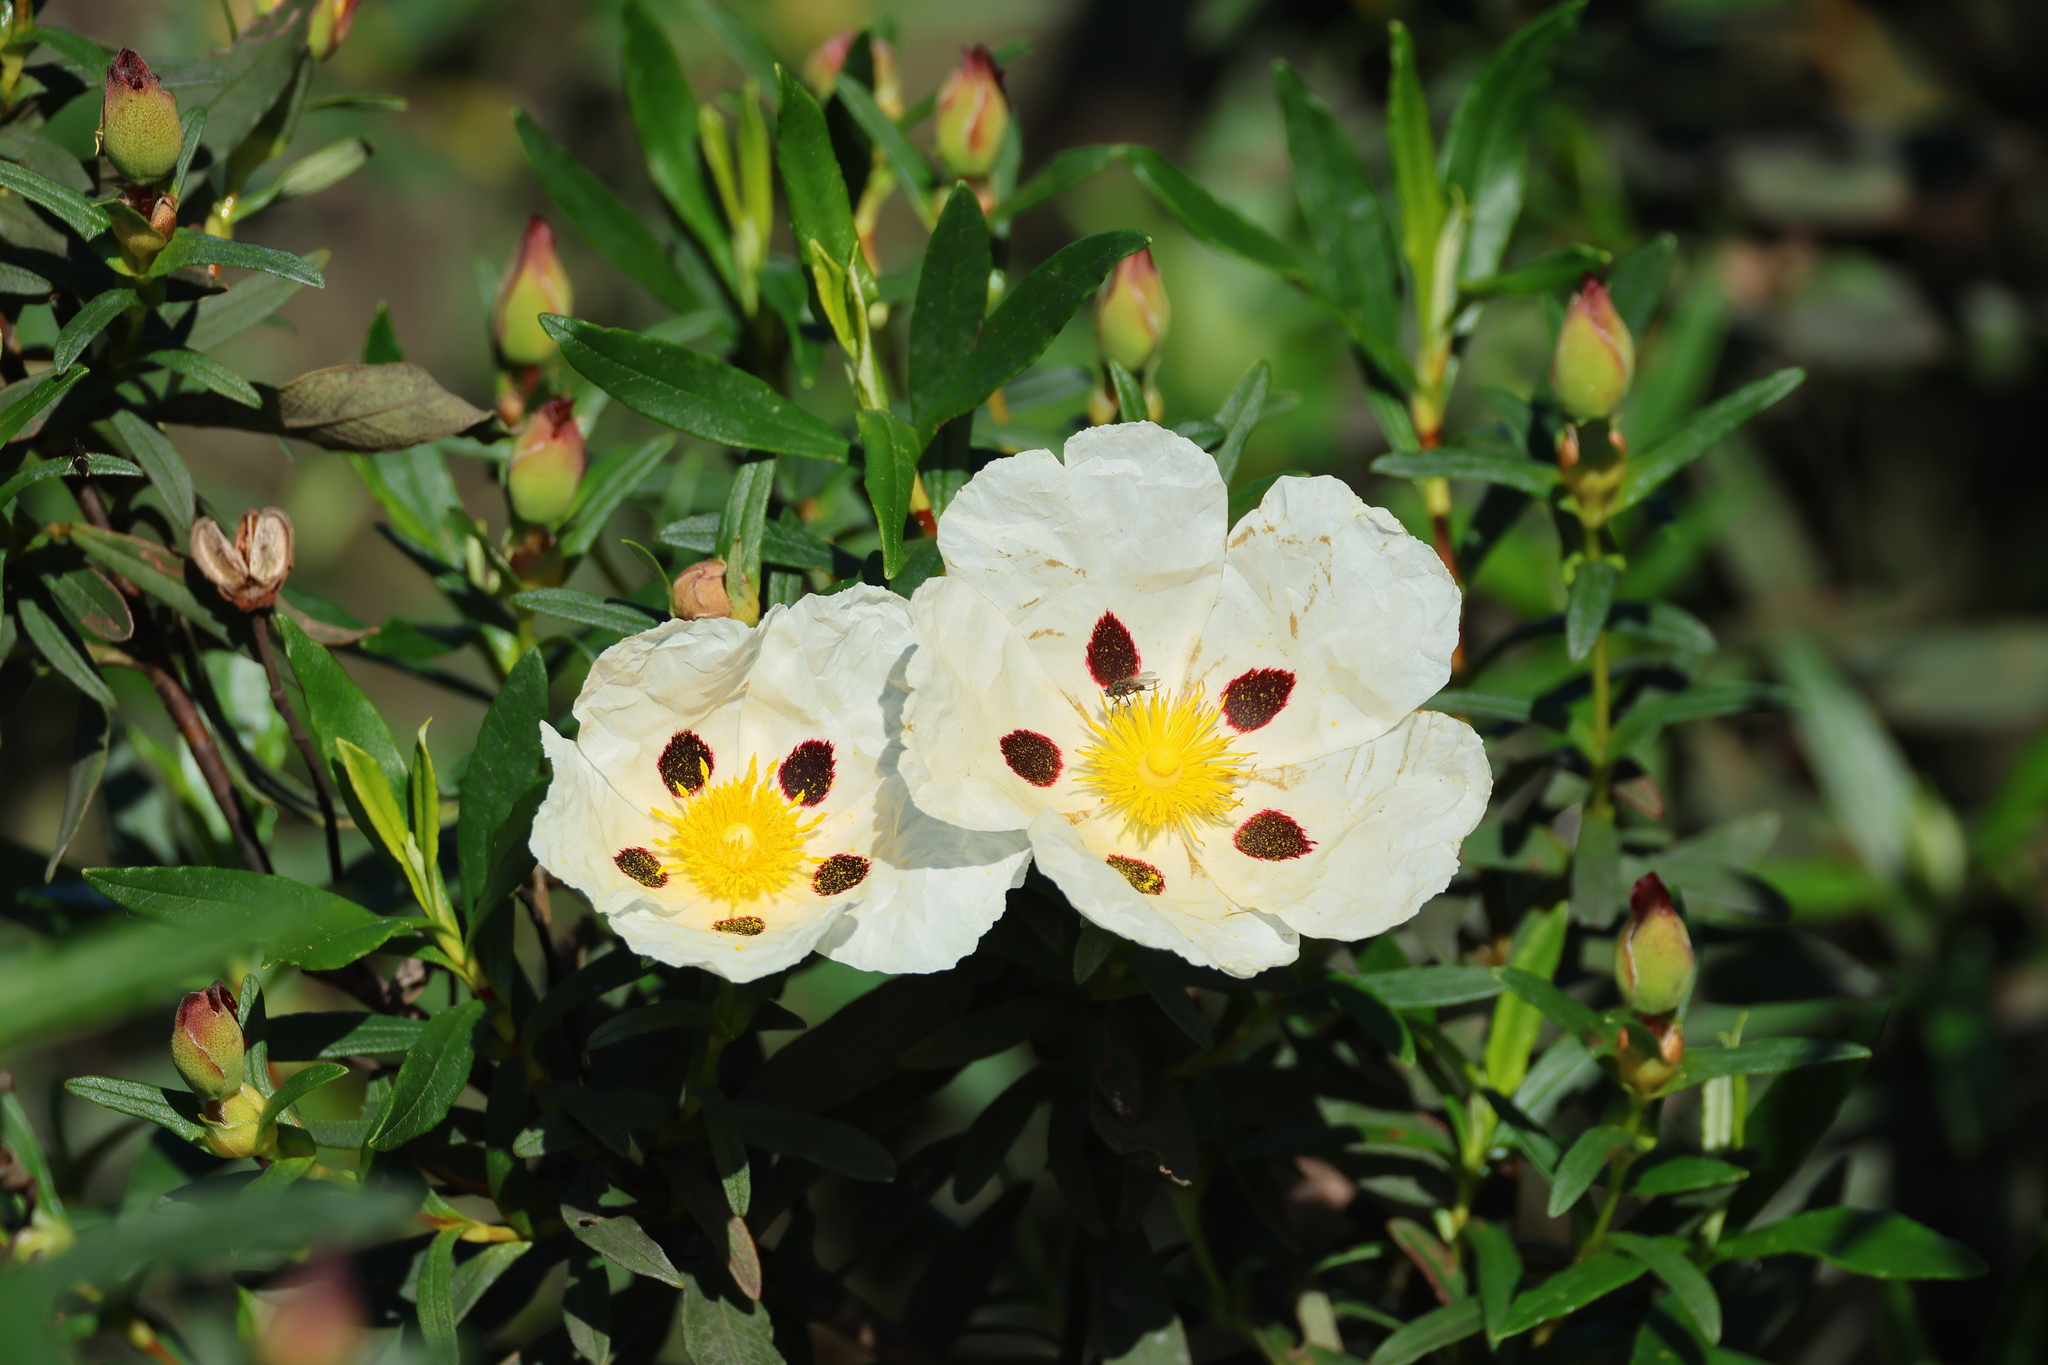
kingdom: Plantae
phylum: Tracheophyta
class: Magnoliopsida
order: Malvales
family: Cistaceae
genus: Cistus
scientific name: Cistus ladanifer
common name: Common gum cistus
